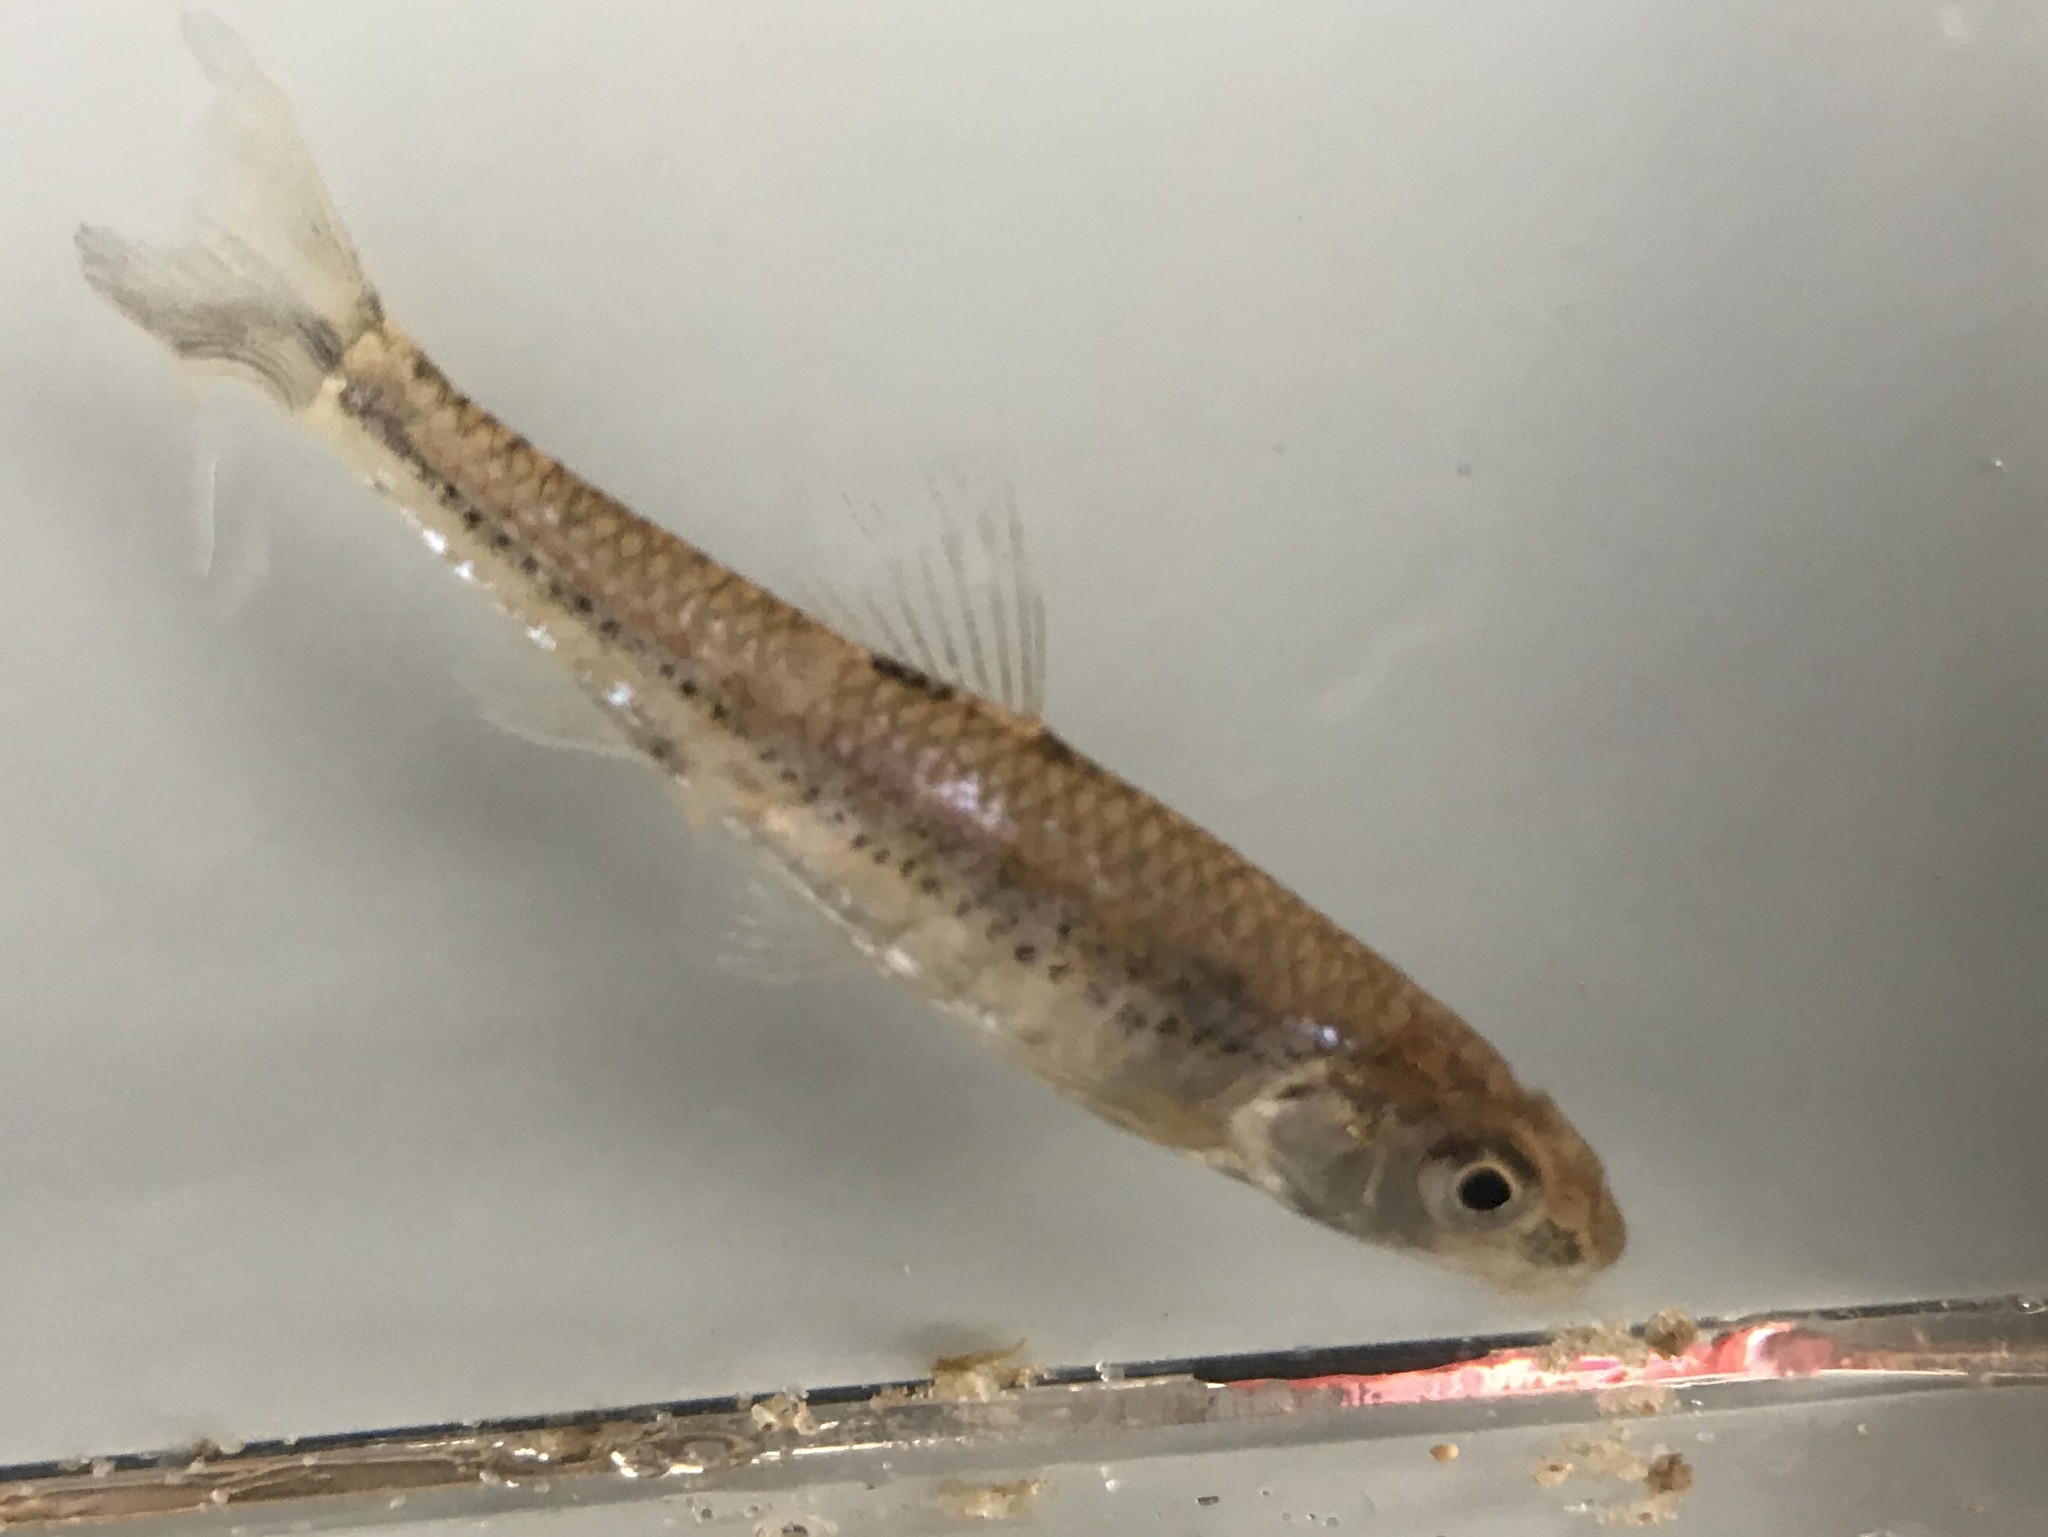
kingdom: Animalia
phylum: Chordata
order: Cypriniformes
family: Cyprinidae
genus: Notropis
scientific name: Notropis
